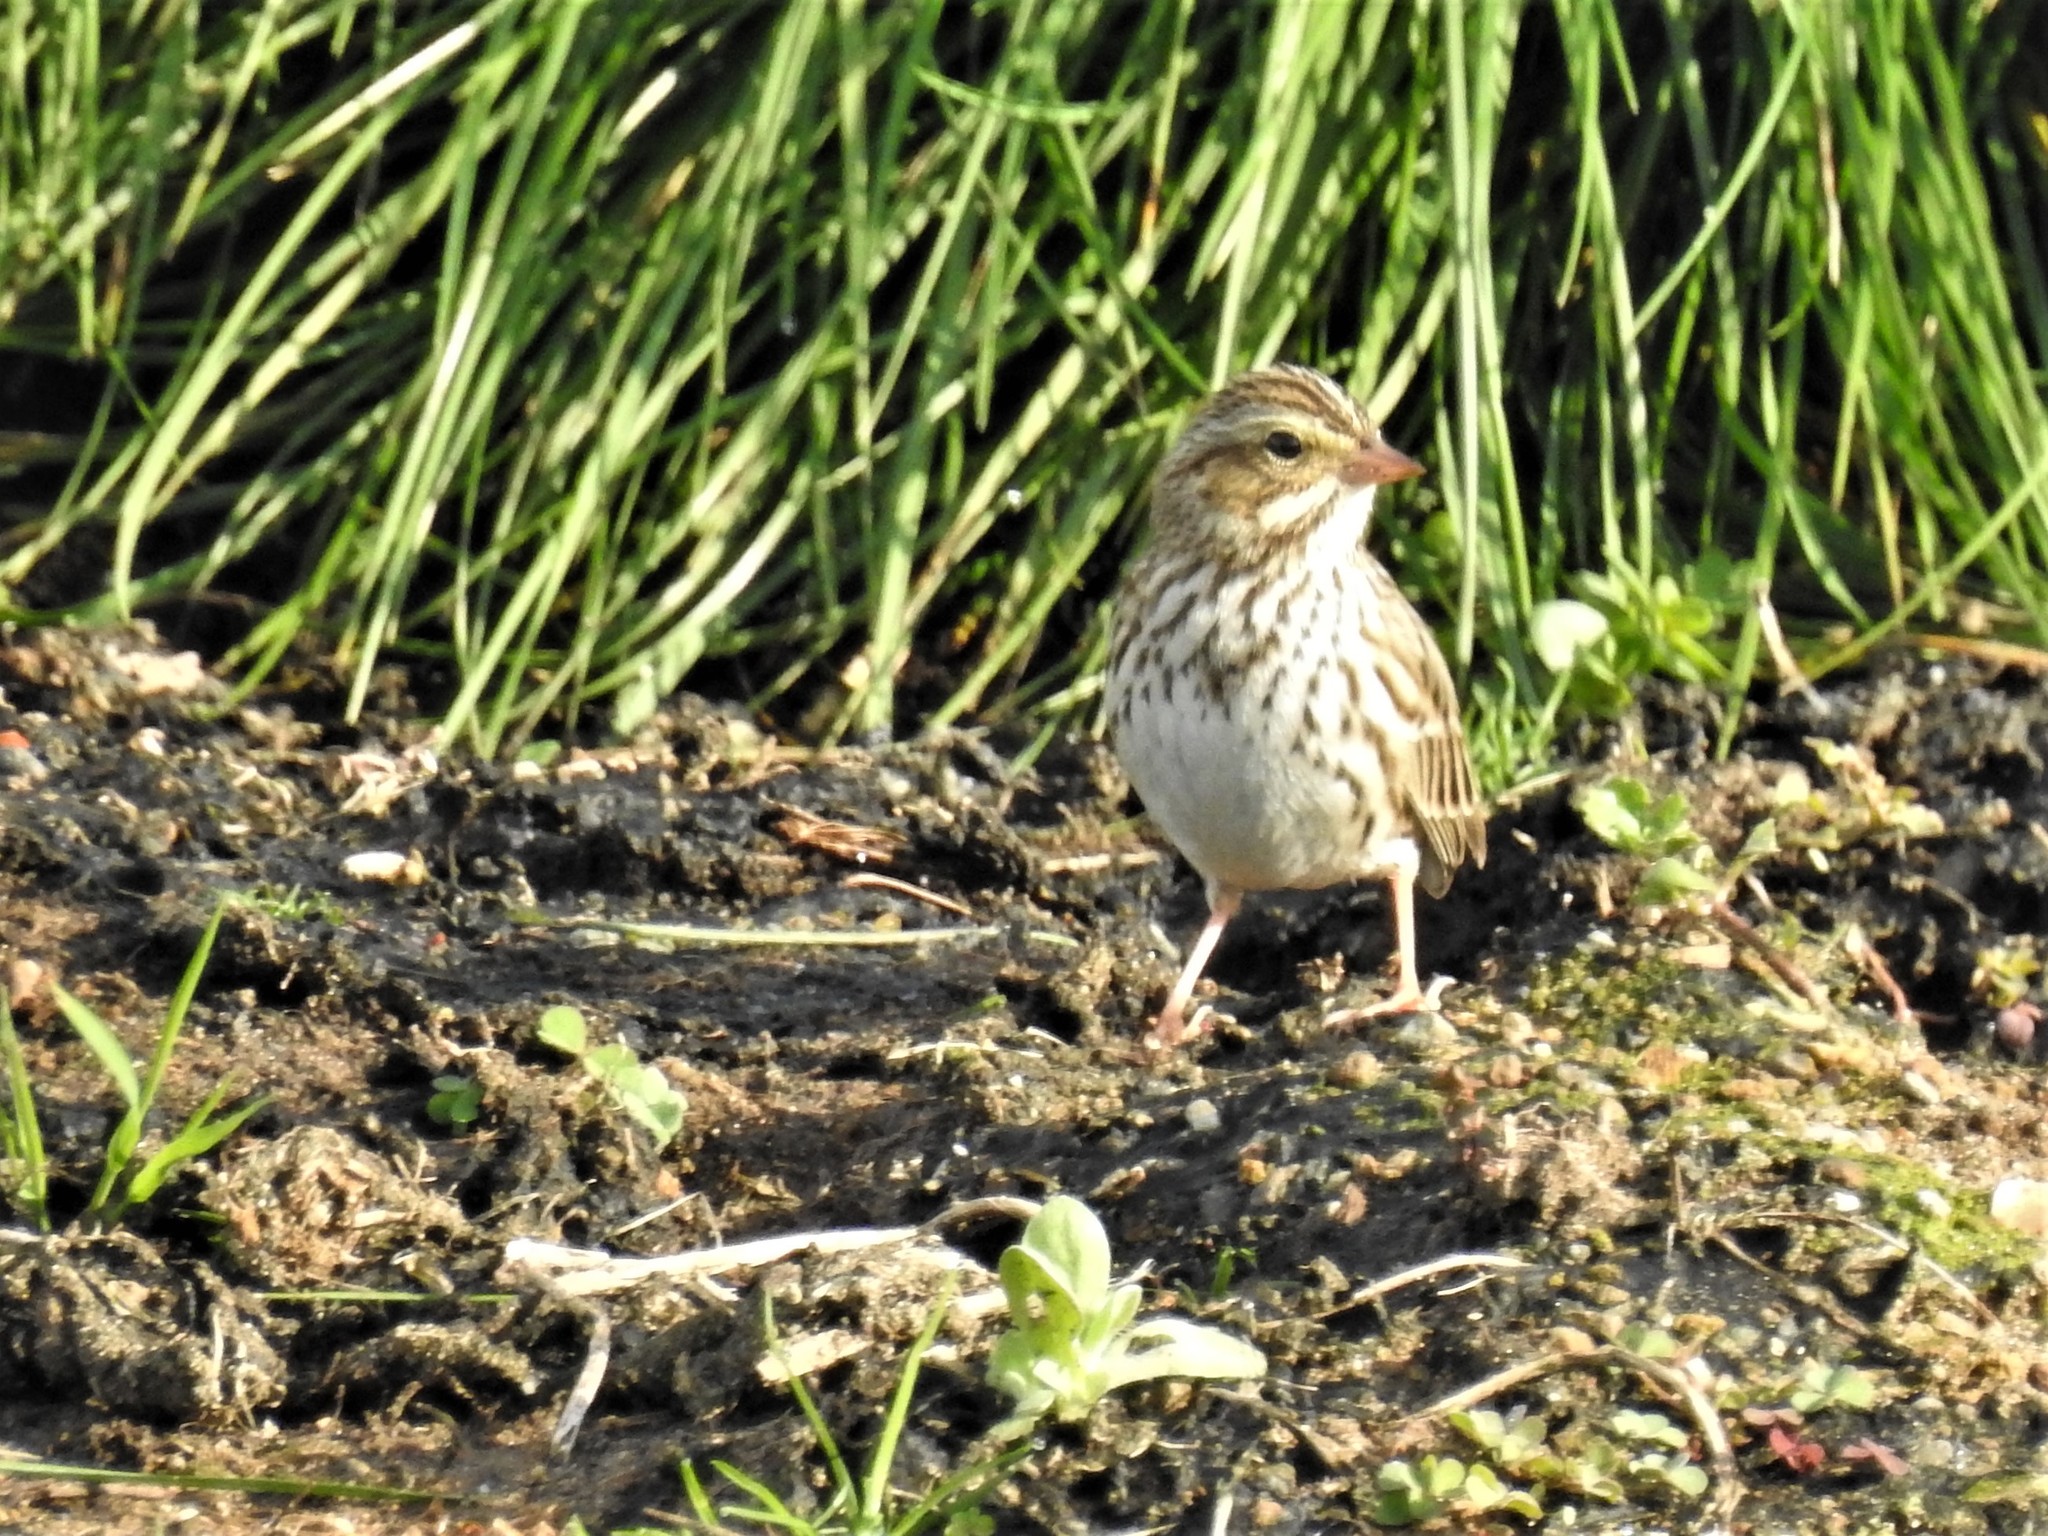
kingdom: Animalia
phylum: Chordata
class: Aves
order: Passeriformes
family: Passerellidae
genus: Passerculus
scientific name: Passerculus sandwichensis
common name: Savannah sparrow
